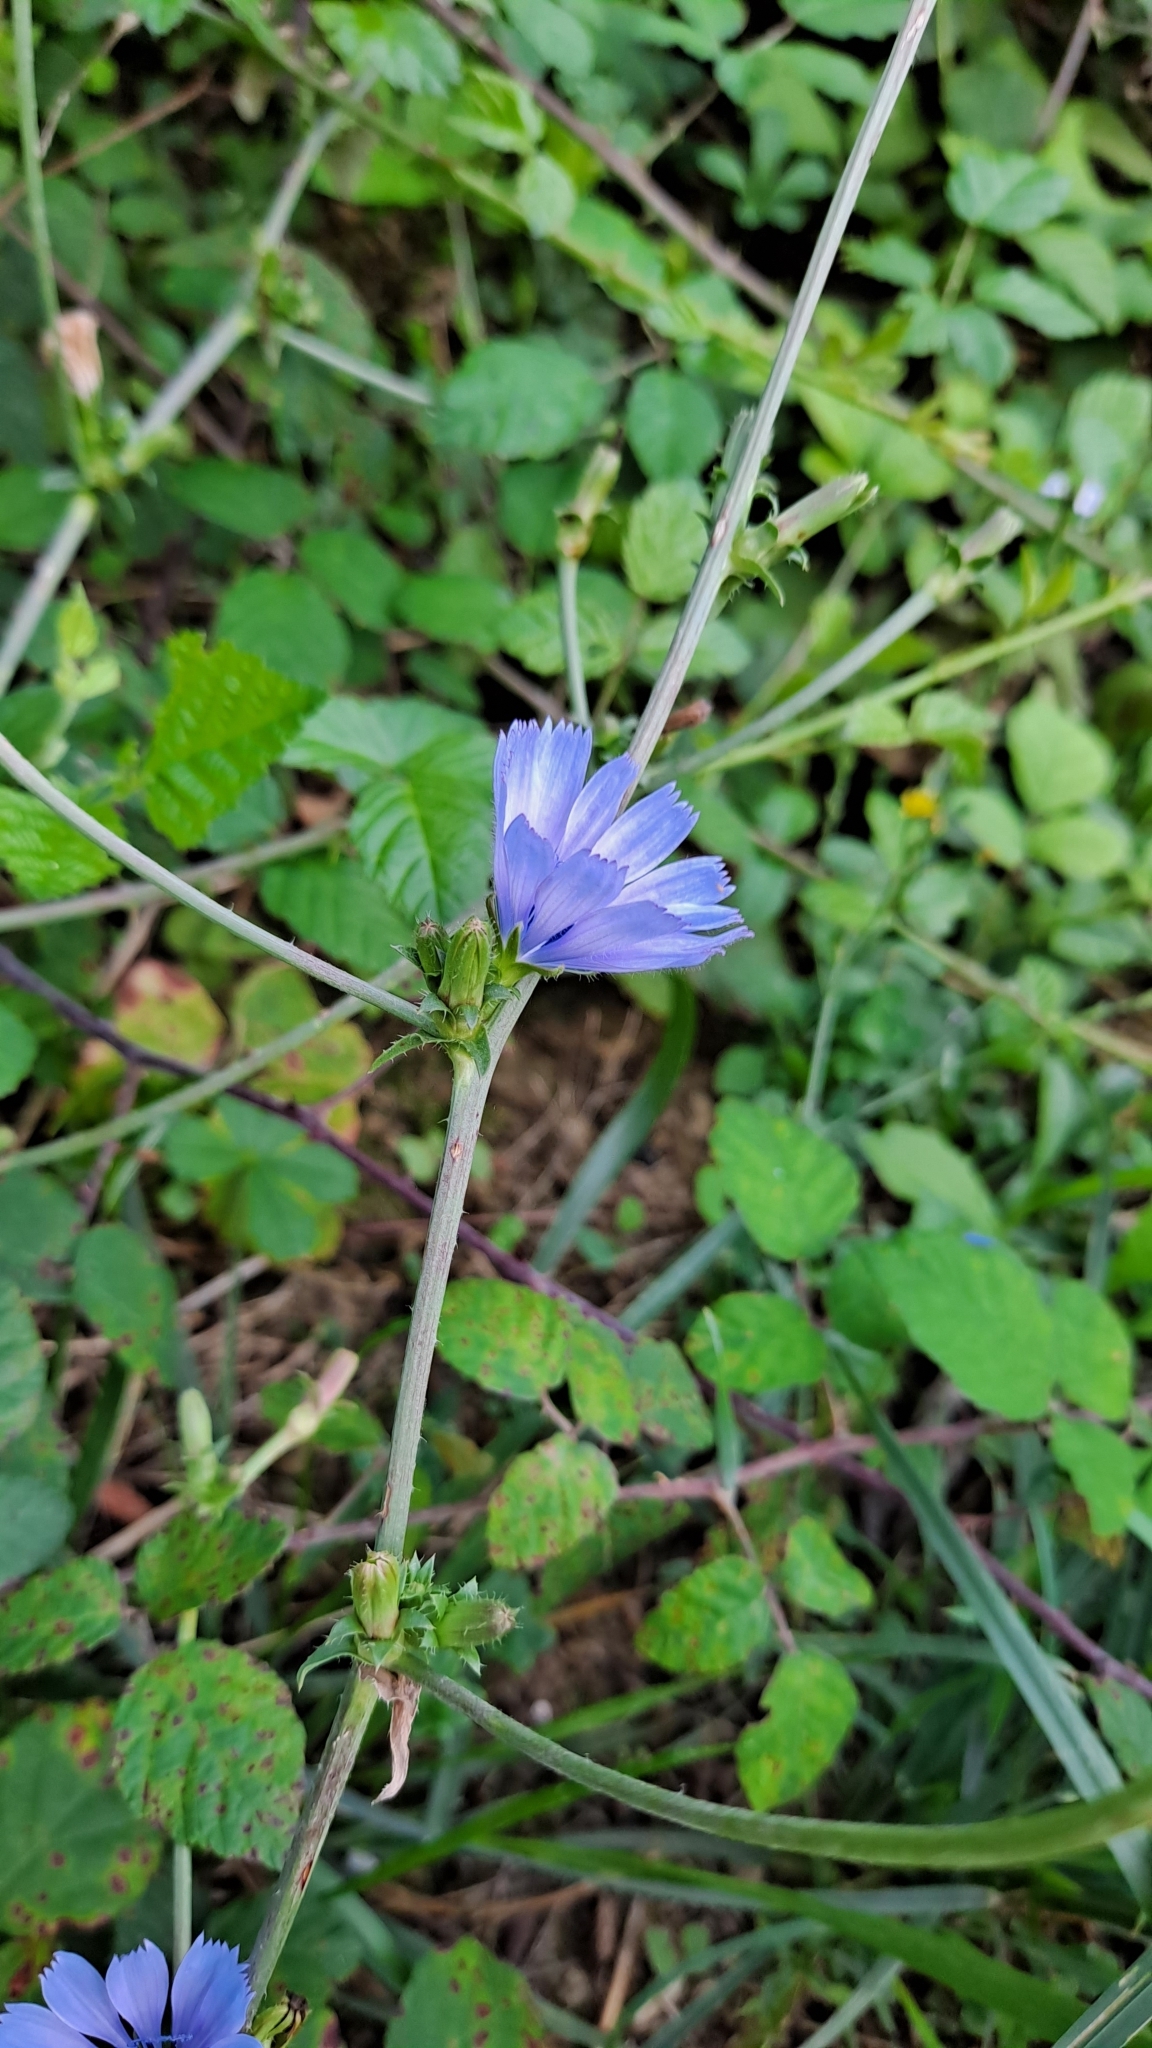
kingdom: Plantae
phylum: Tracheophyta
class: Magnoliopsida
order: Asterales
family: Asteraceae
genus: Cichorium
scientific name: Cichorium intybus
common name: Chicory
